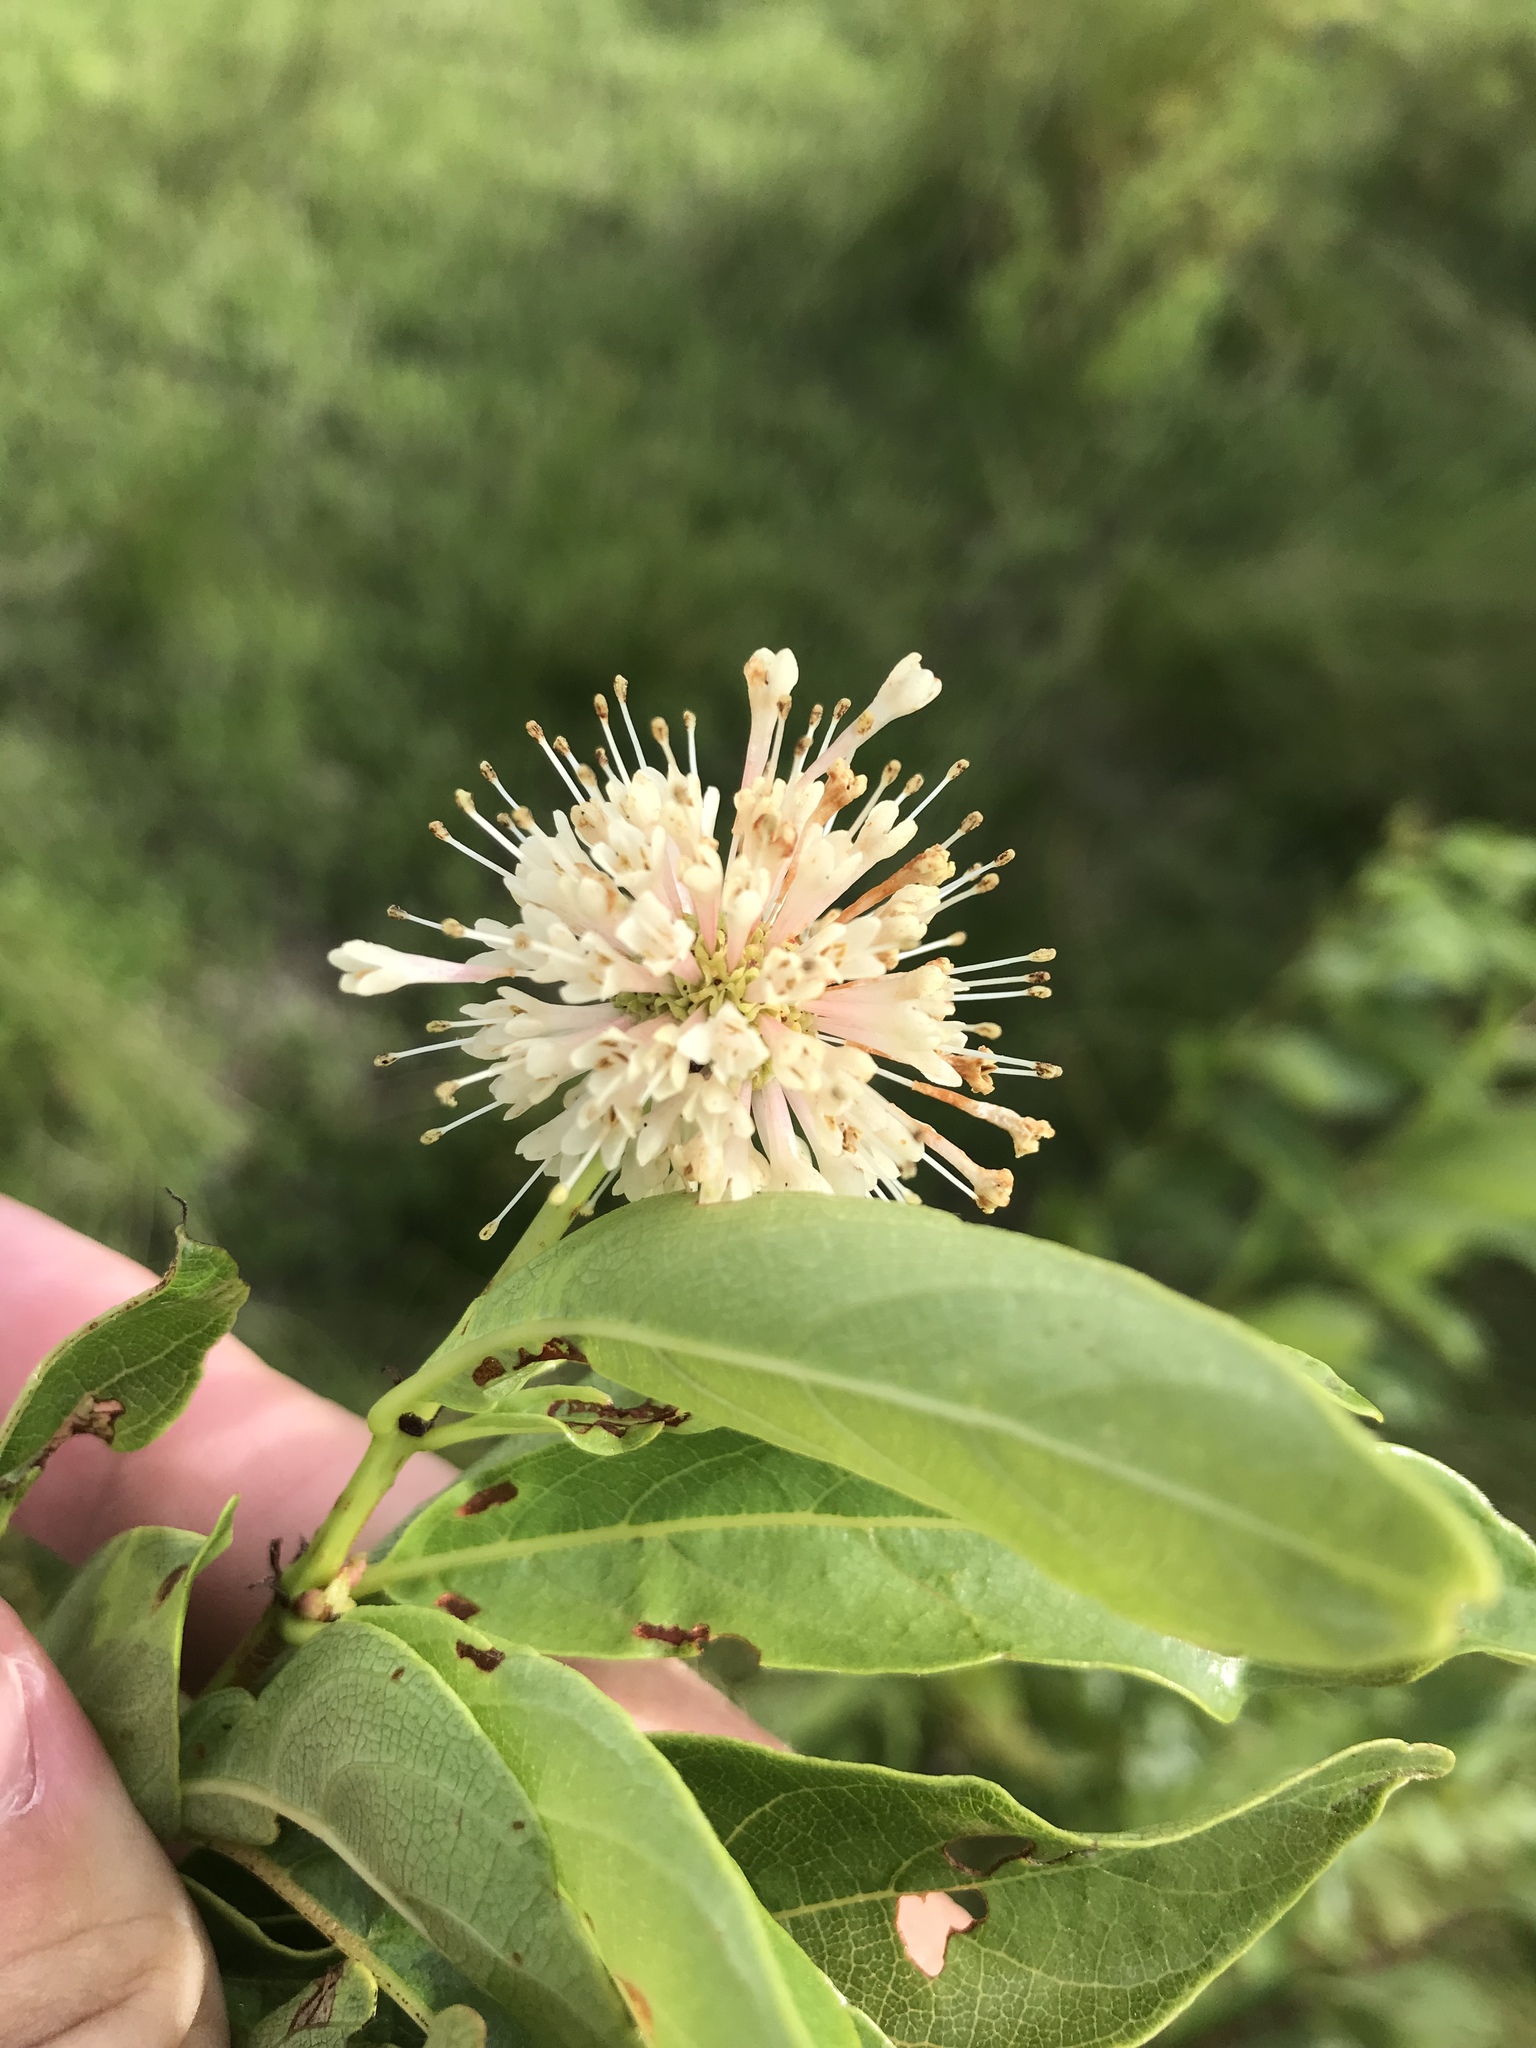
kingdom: Plantae
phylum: Tracheophyta
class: Magnoliopsida
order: Gentianales
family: Rubiaceae
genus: Cephalanthus
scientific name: Cephalanthus occidentalis
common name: Button-willow
